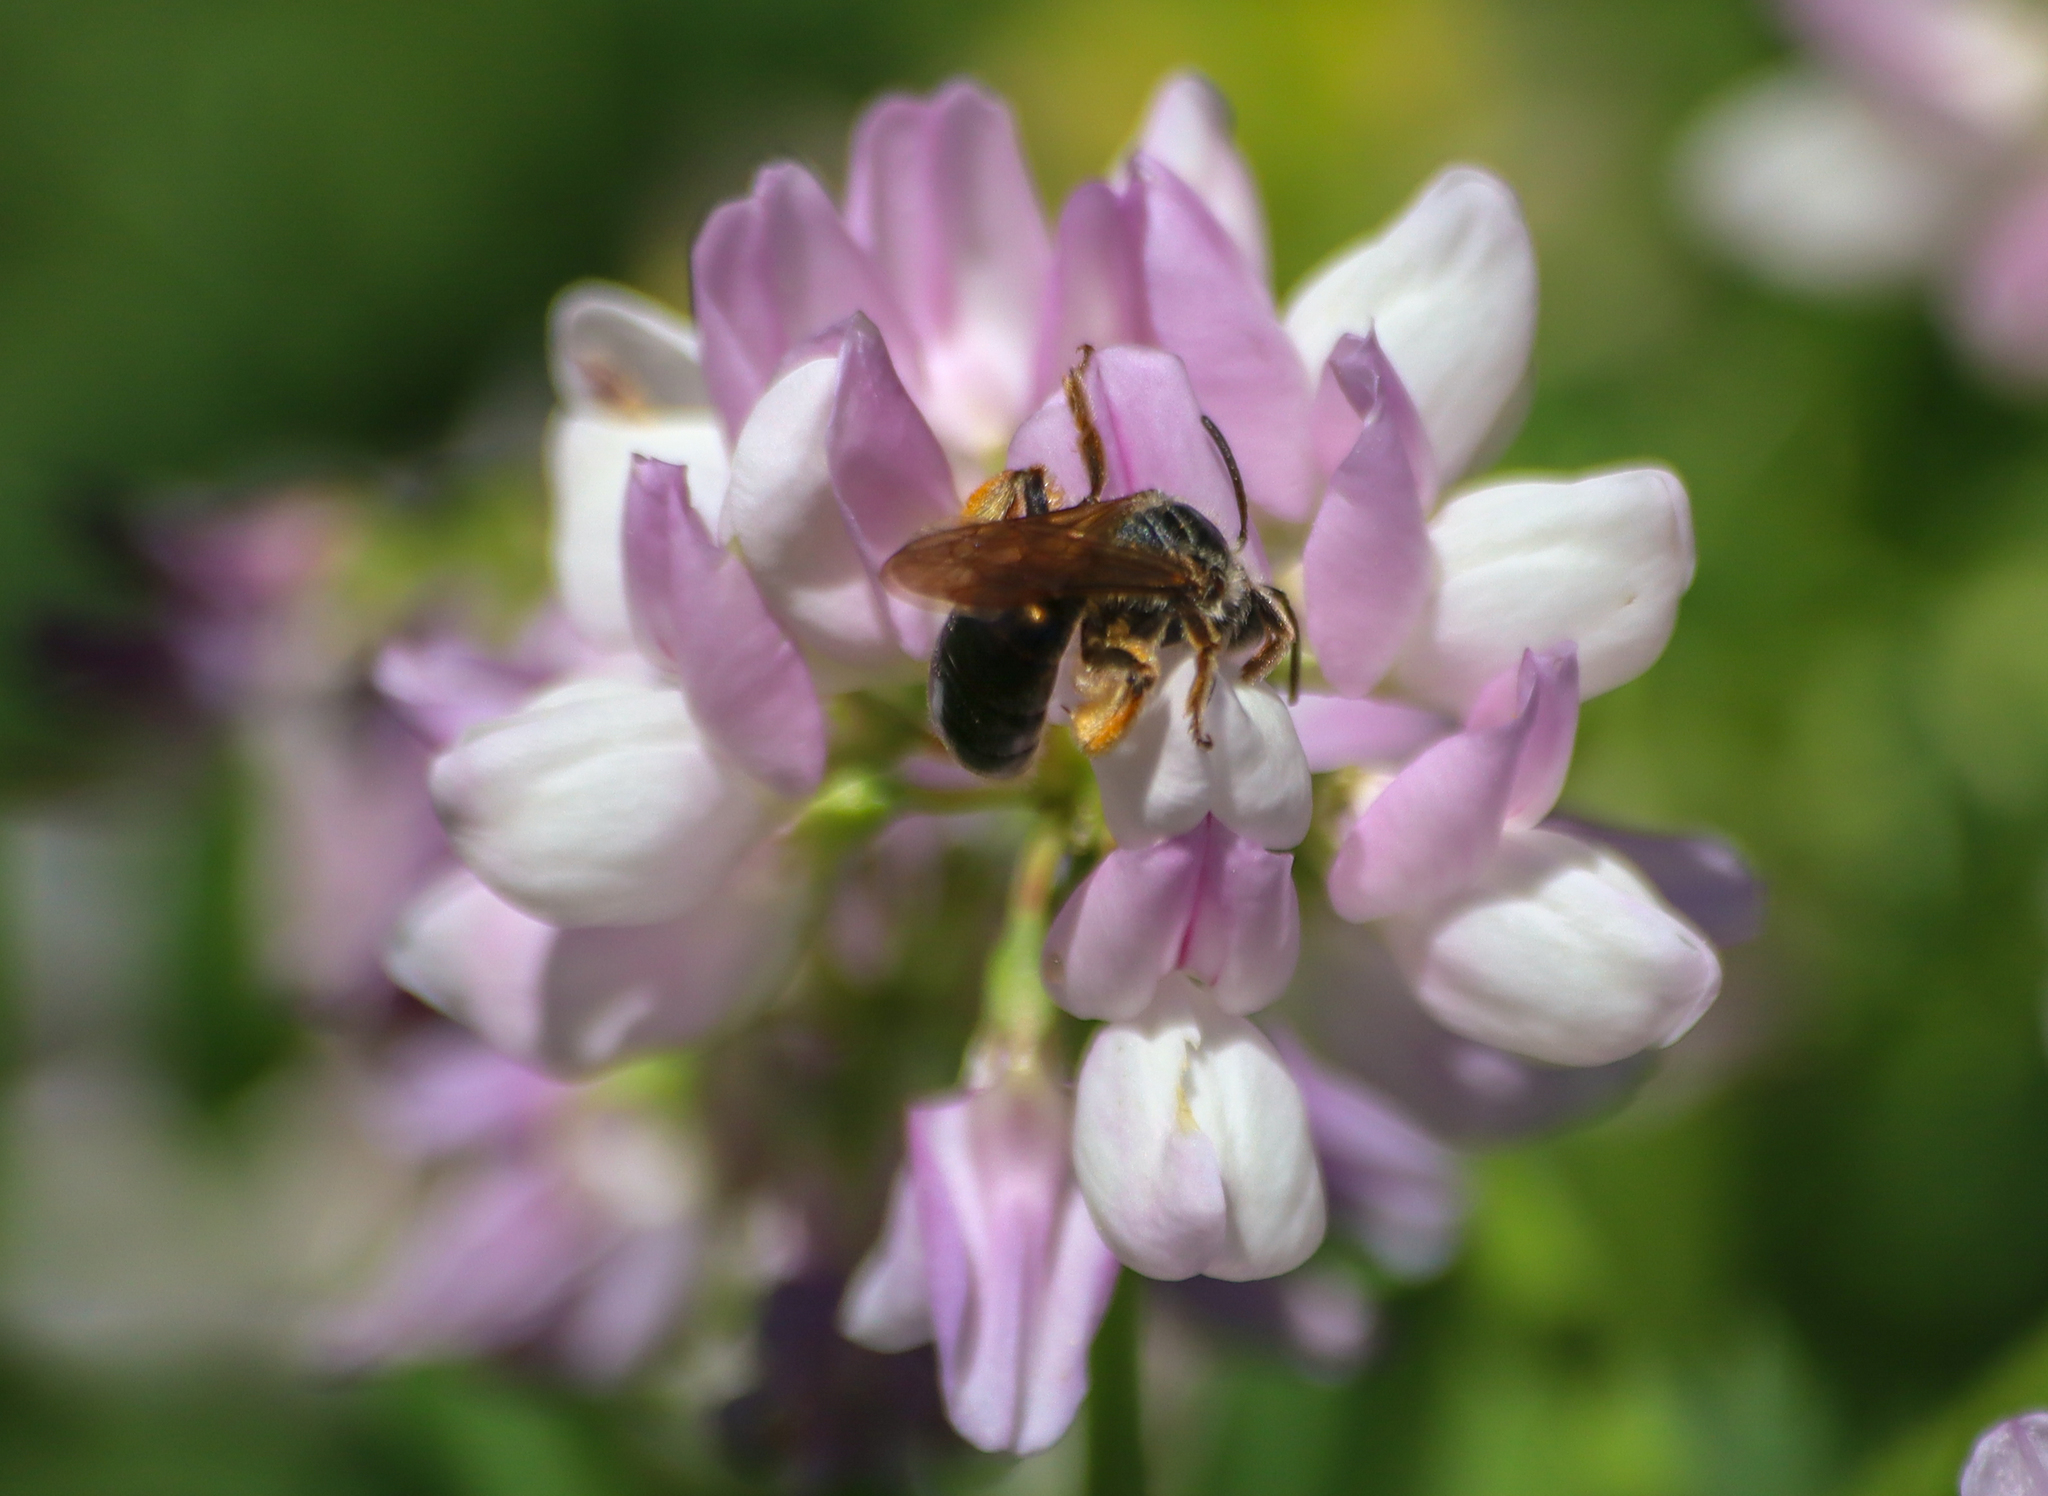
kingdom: Animalia
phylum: Arthropoda
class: Insecta
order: Hymenoptera
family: Andrenidae
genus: Andrena
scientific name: Andrena crataegi
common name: Hawthorn mining bee
